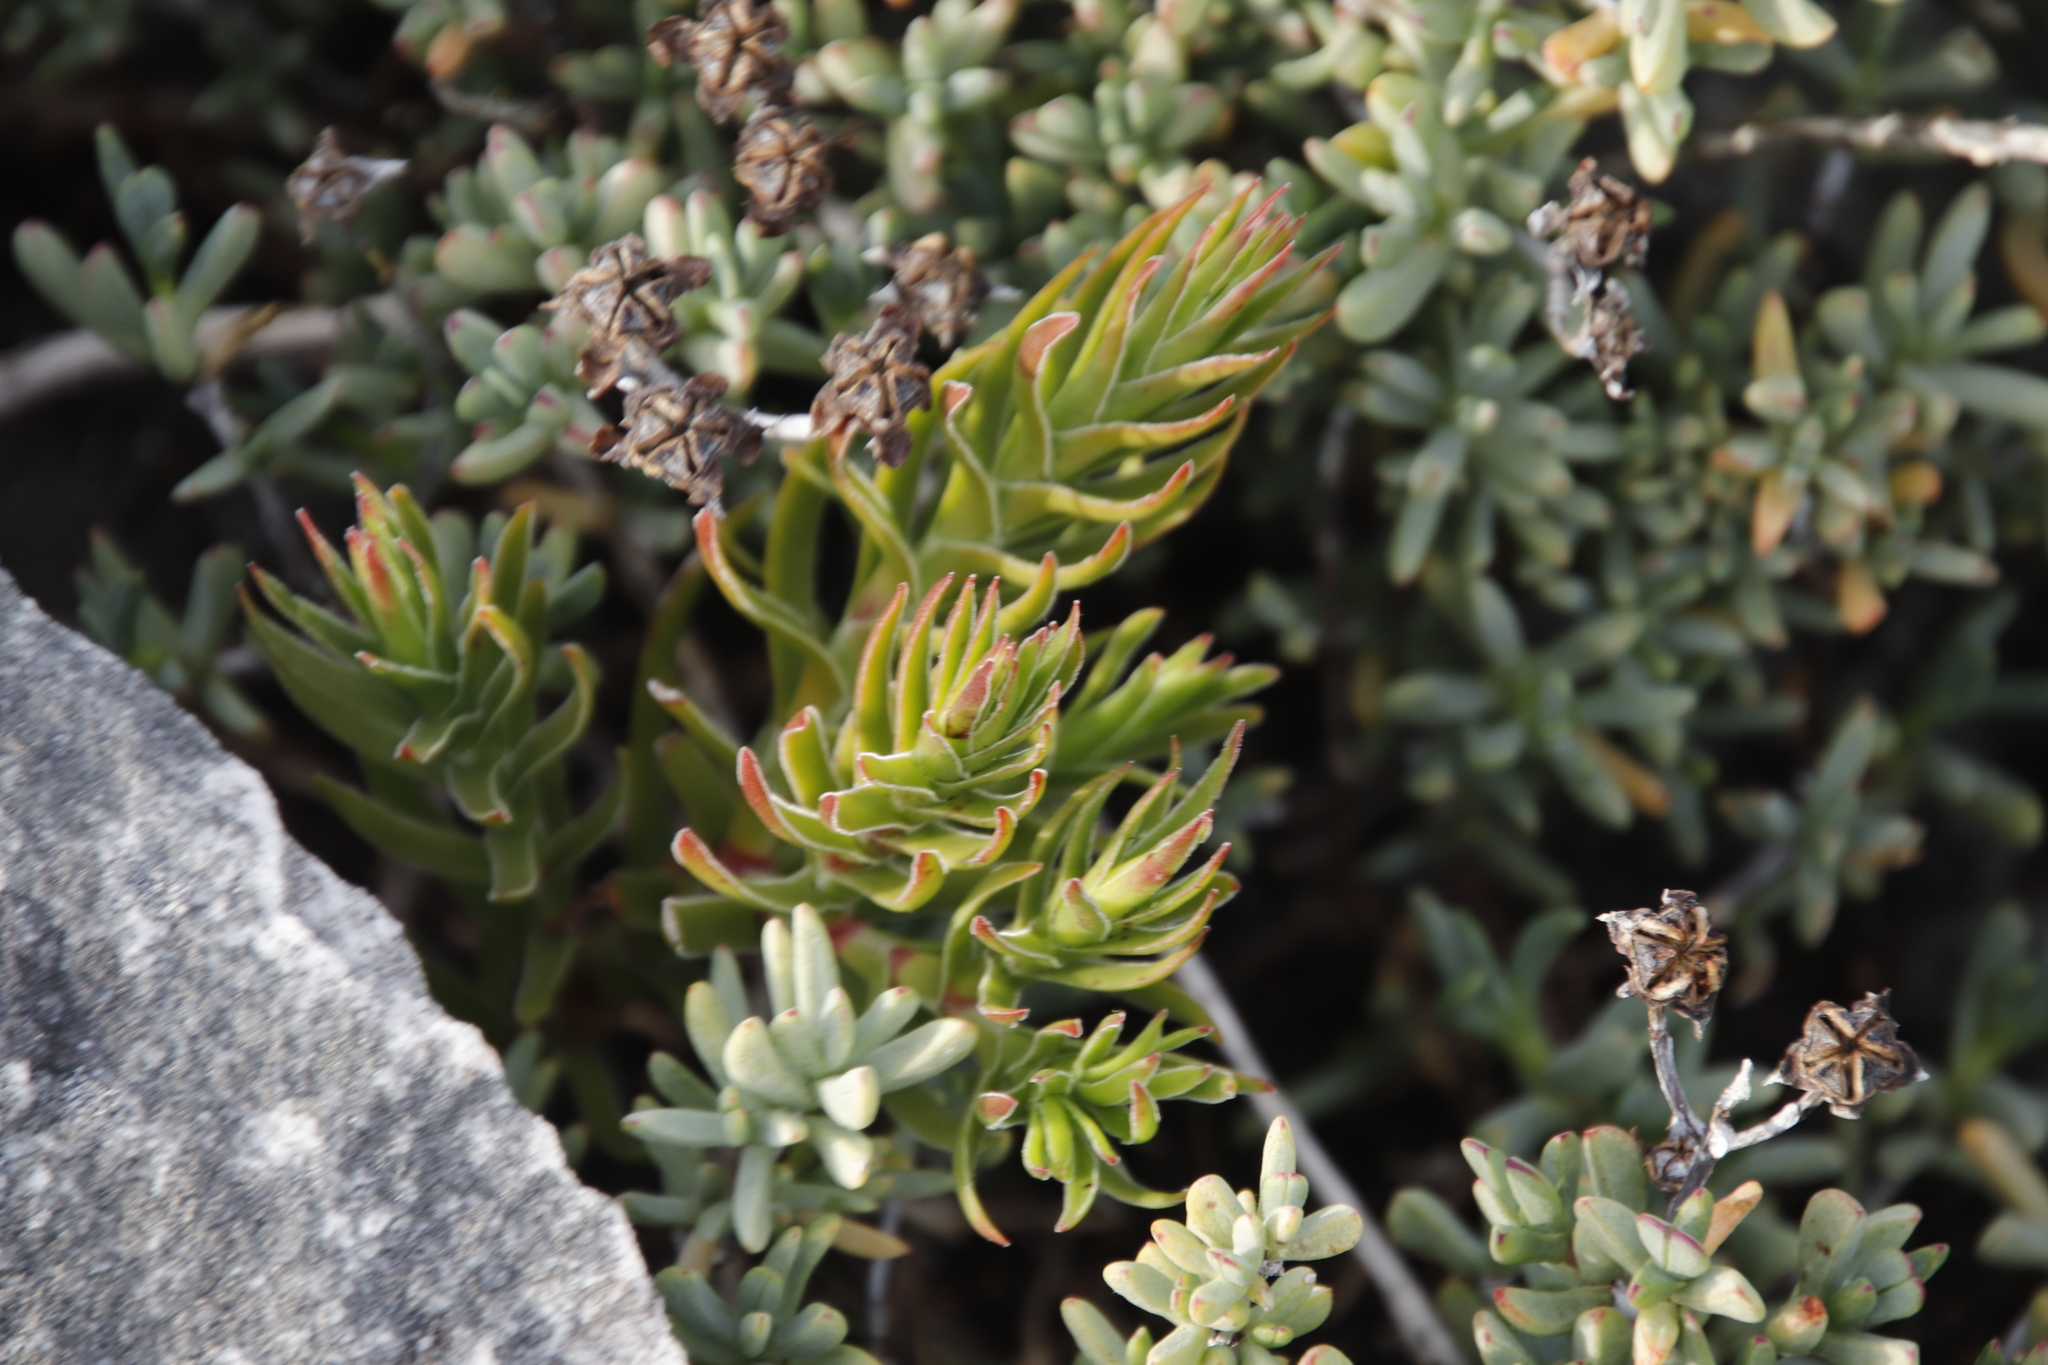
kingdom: Plantae
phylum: Tracheophyta
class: Magnoliopsida
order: Saxifragales
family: Crassulaceae
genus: Crassula
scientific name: Crassula fascicularis
